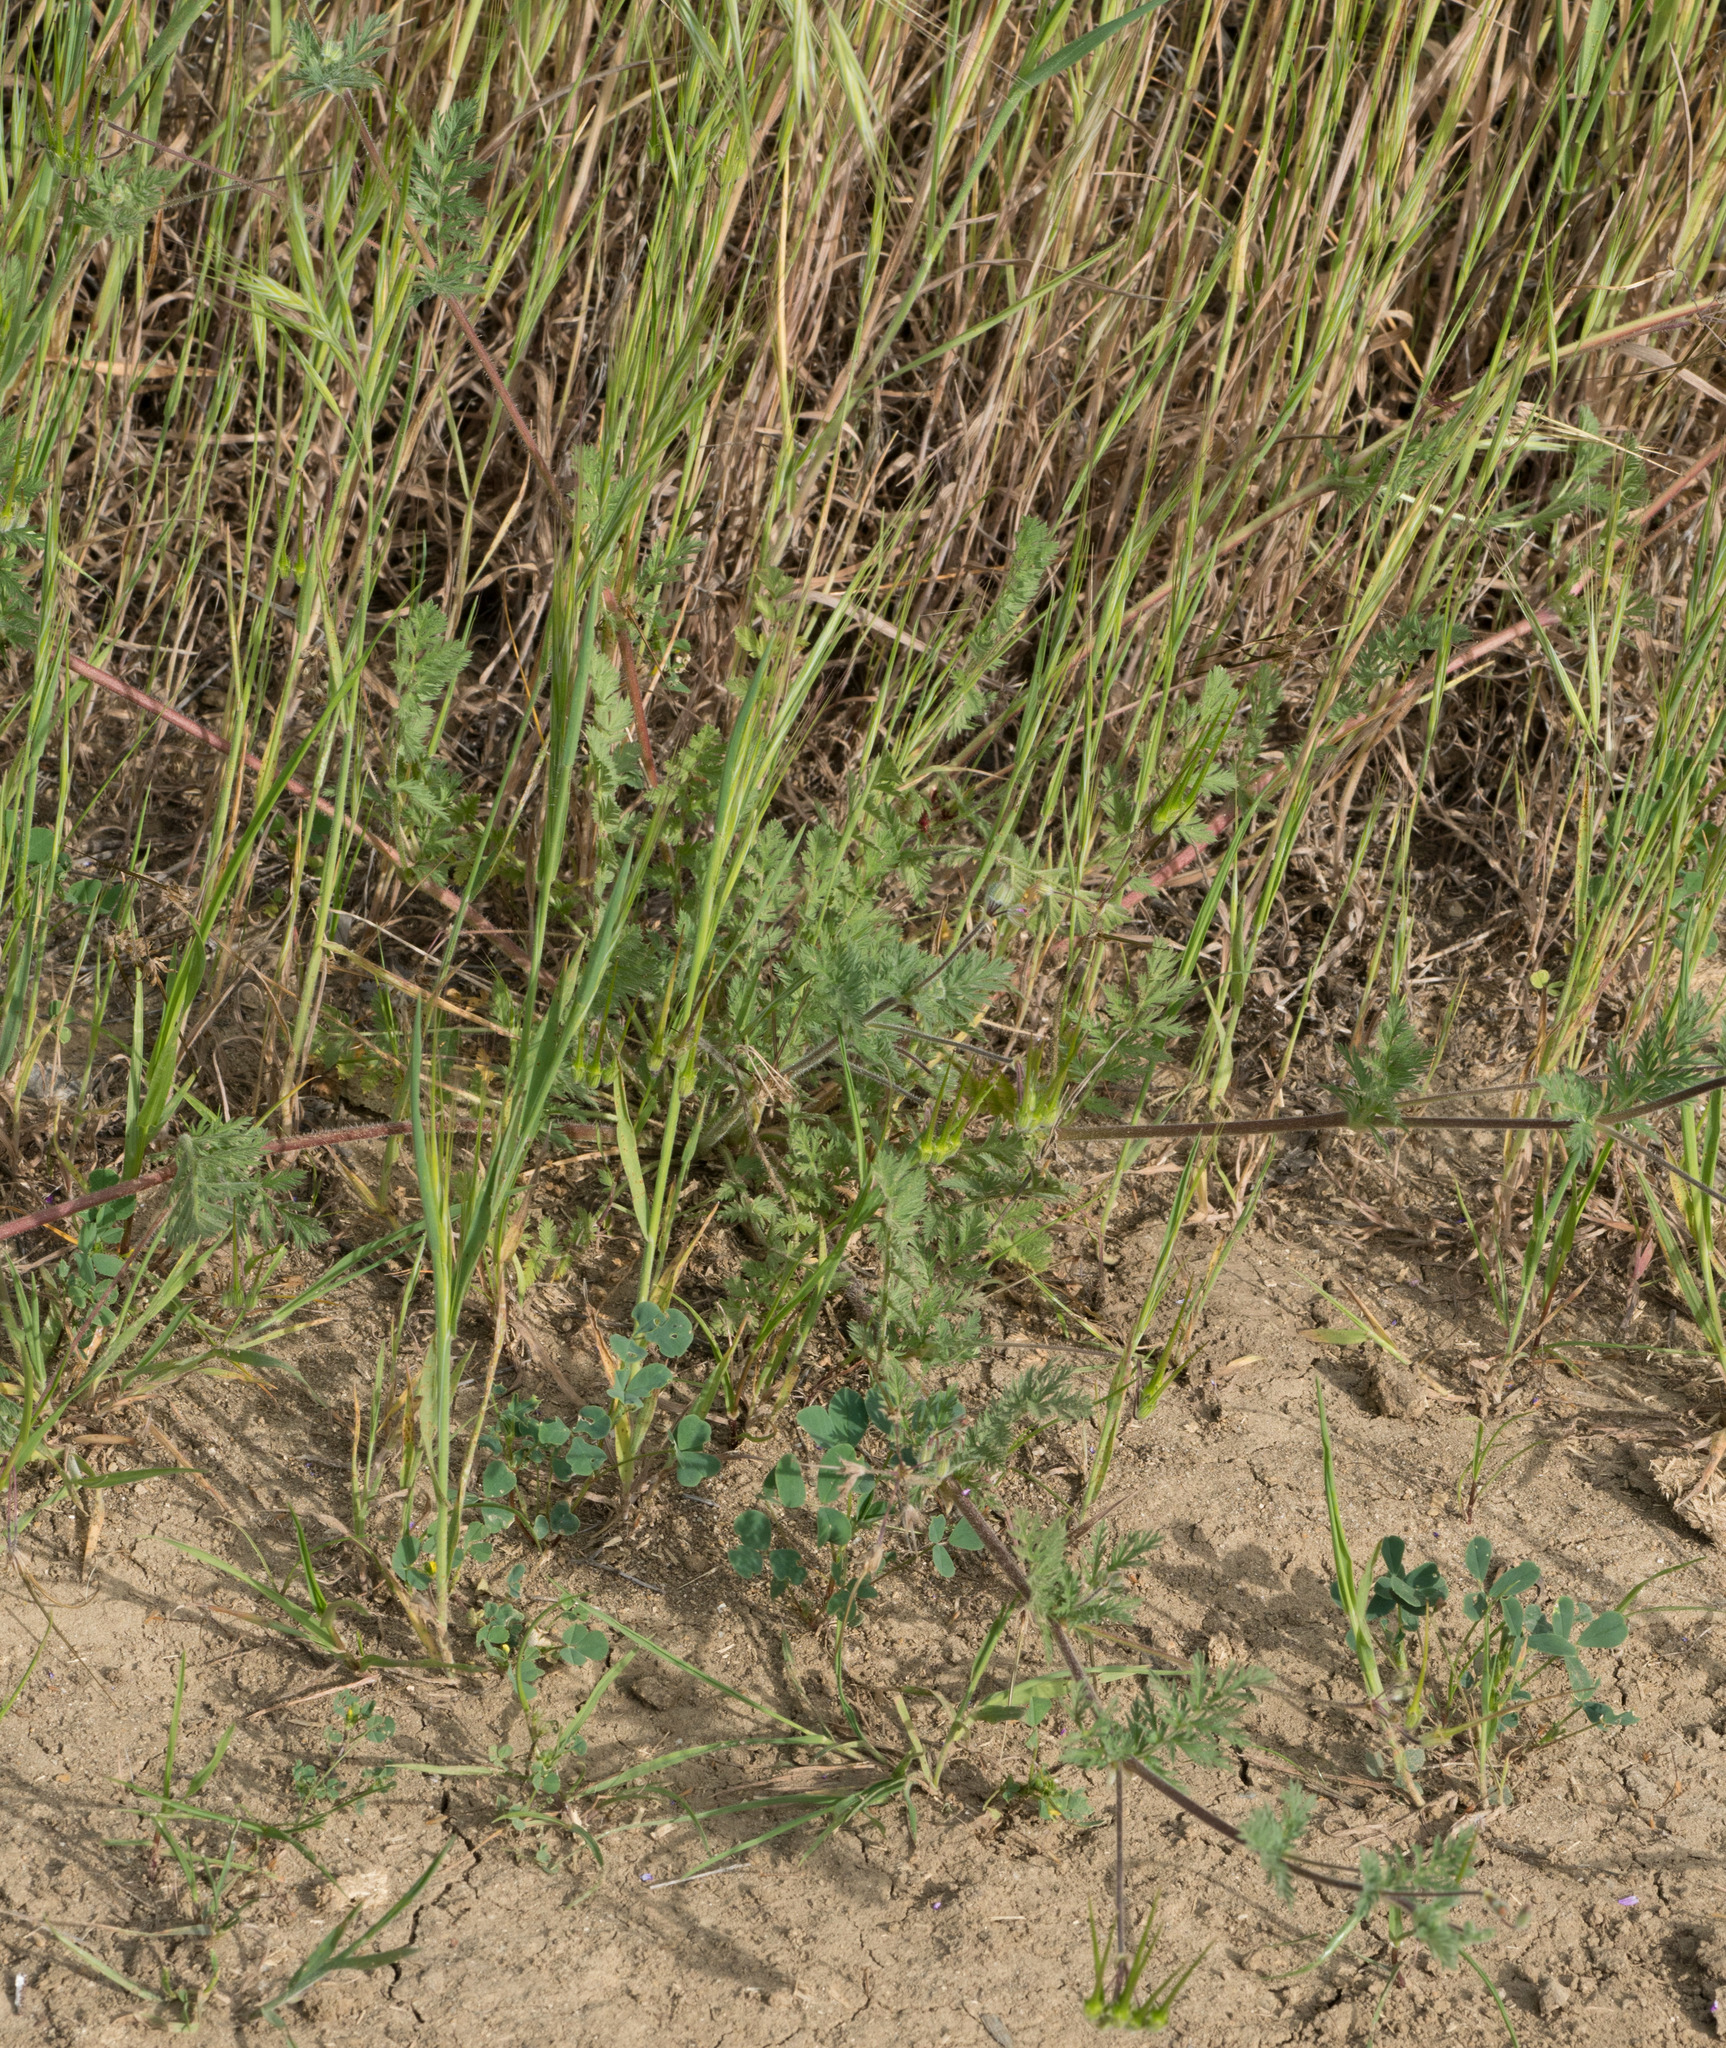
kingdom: Plantae
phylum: Tracheophyta
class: Magnoliopsida
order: Geraniales
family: Geraniaceae
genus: Erodium
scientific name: Erodium cicutarium
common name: Common stork's-bill
